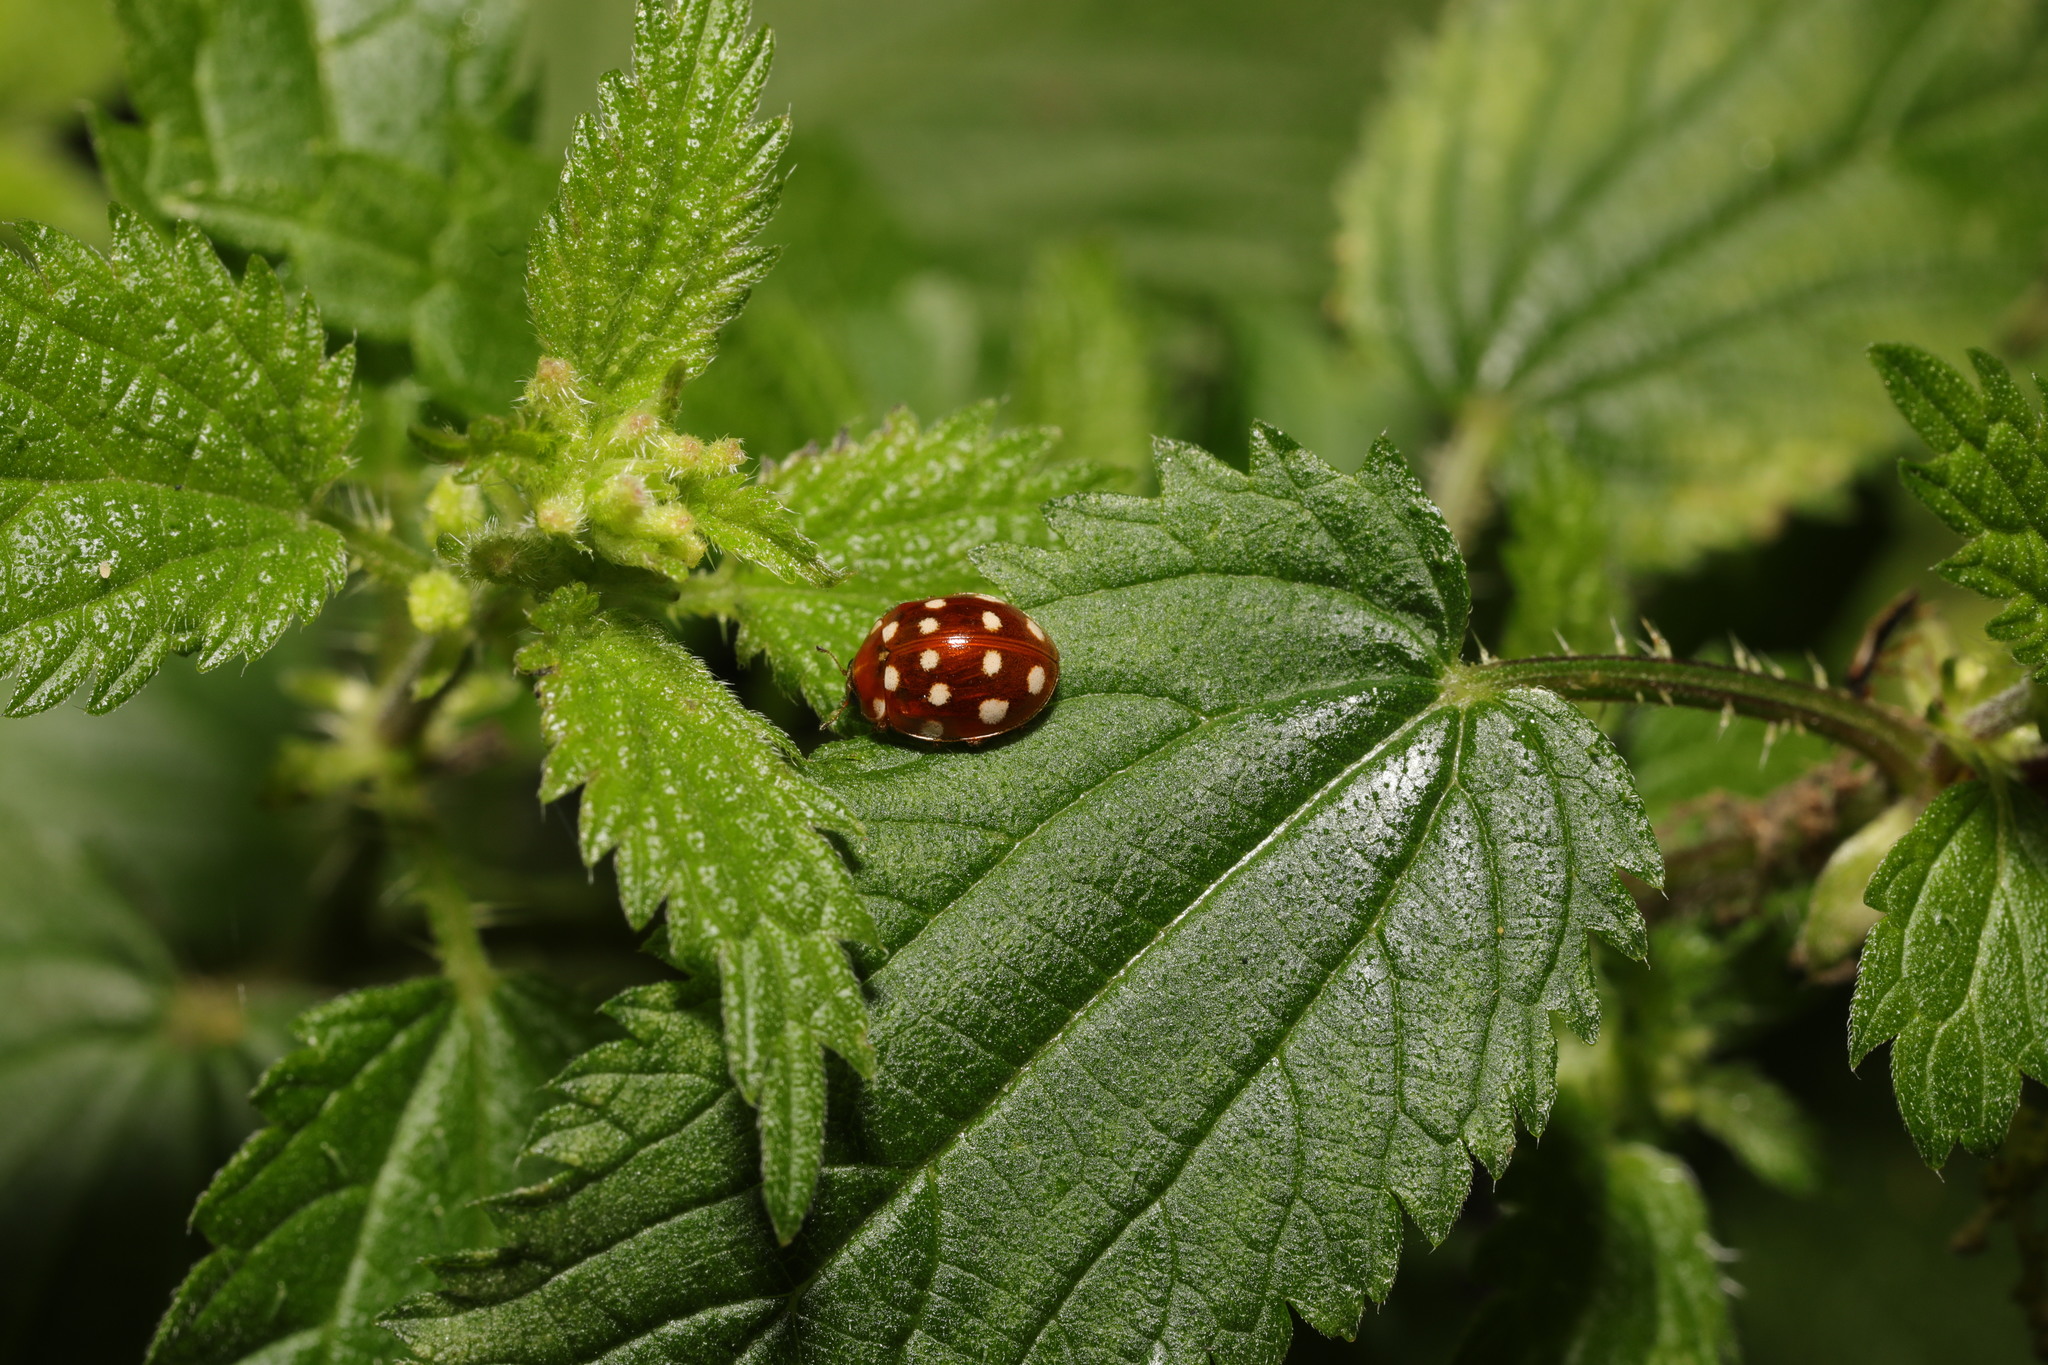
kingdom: Animalia
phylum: Arthropoda
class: Insecta
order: Coleoptera
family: Coccinellidae
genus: Calvia
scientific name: Calvia quatuordecimguttata
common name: Cream-spot ladybird
